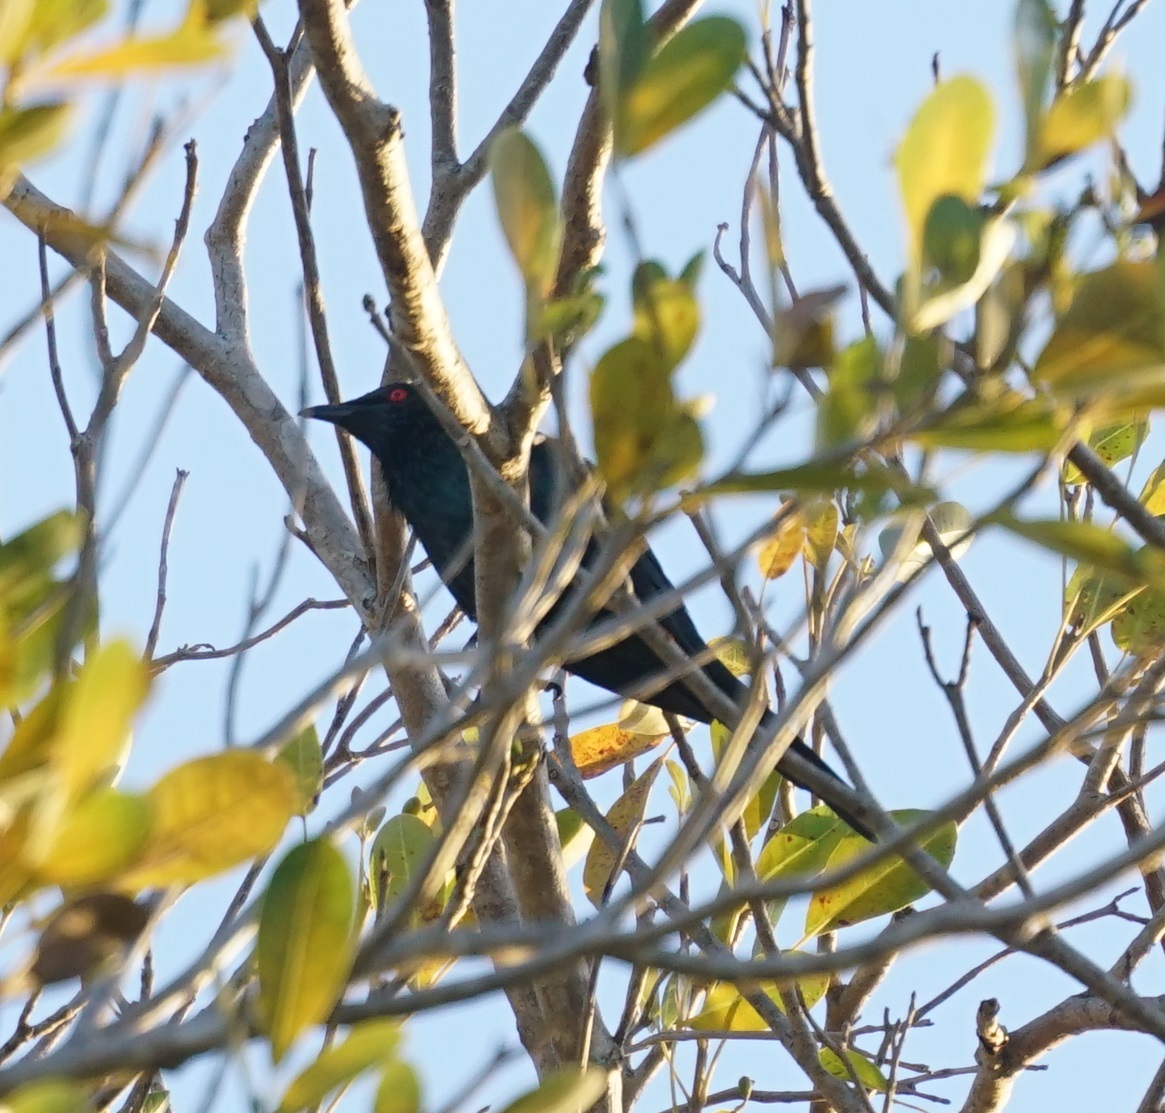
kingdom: Animalia
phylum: Chordata
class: Aves
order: Passeriformes
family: Sturnidae
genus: Aplonis
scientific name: Aplonis metallica
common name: Metallic starling
